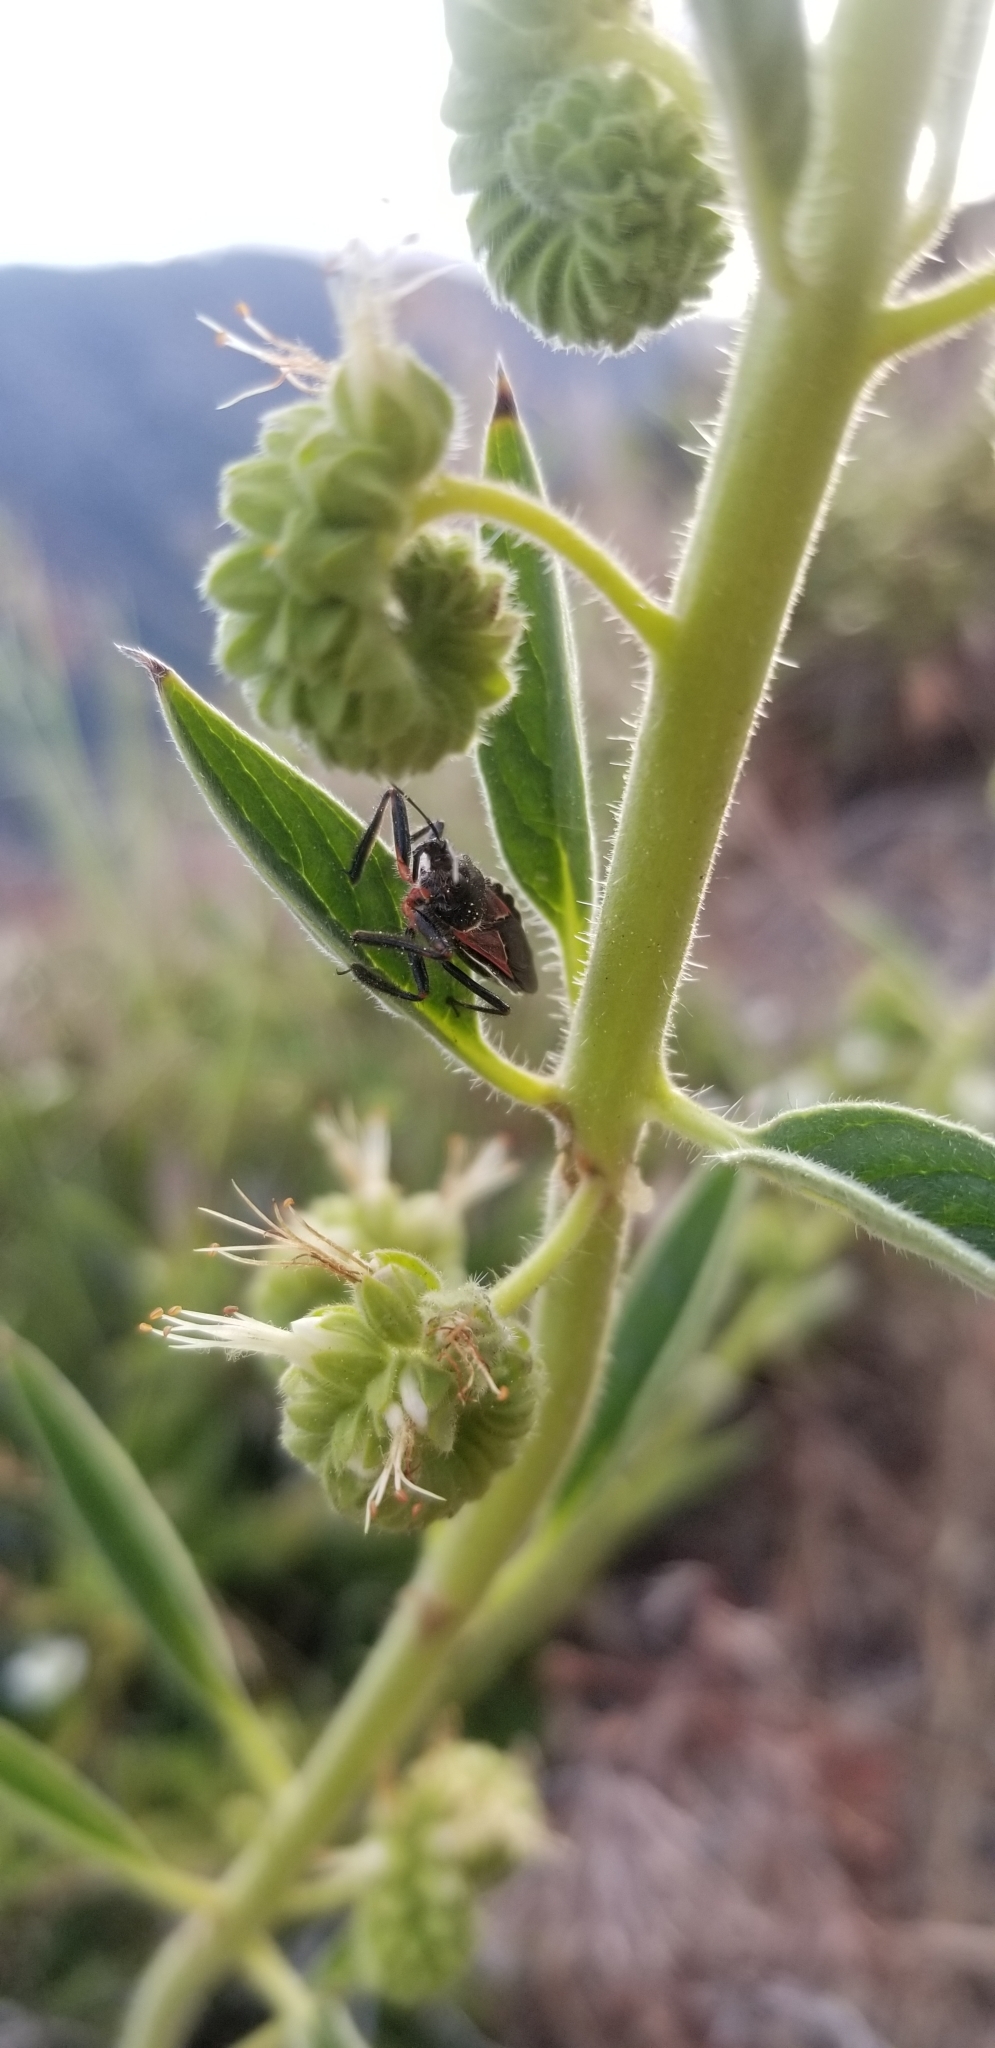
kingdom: Animalia
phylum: Arthropoda
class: Insecta
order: Hemiptera
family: Reduviidae
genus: Apiomerus
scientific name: Apiomerus californicus
